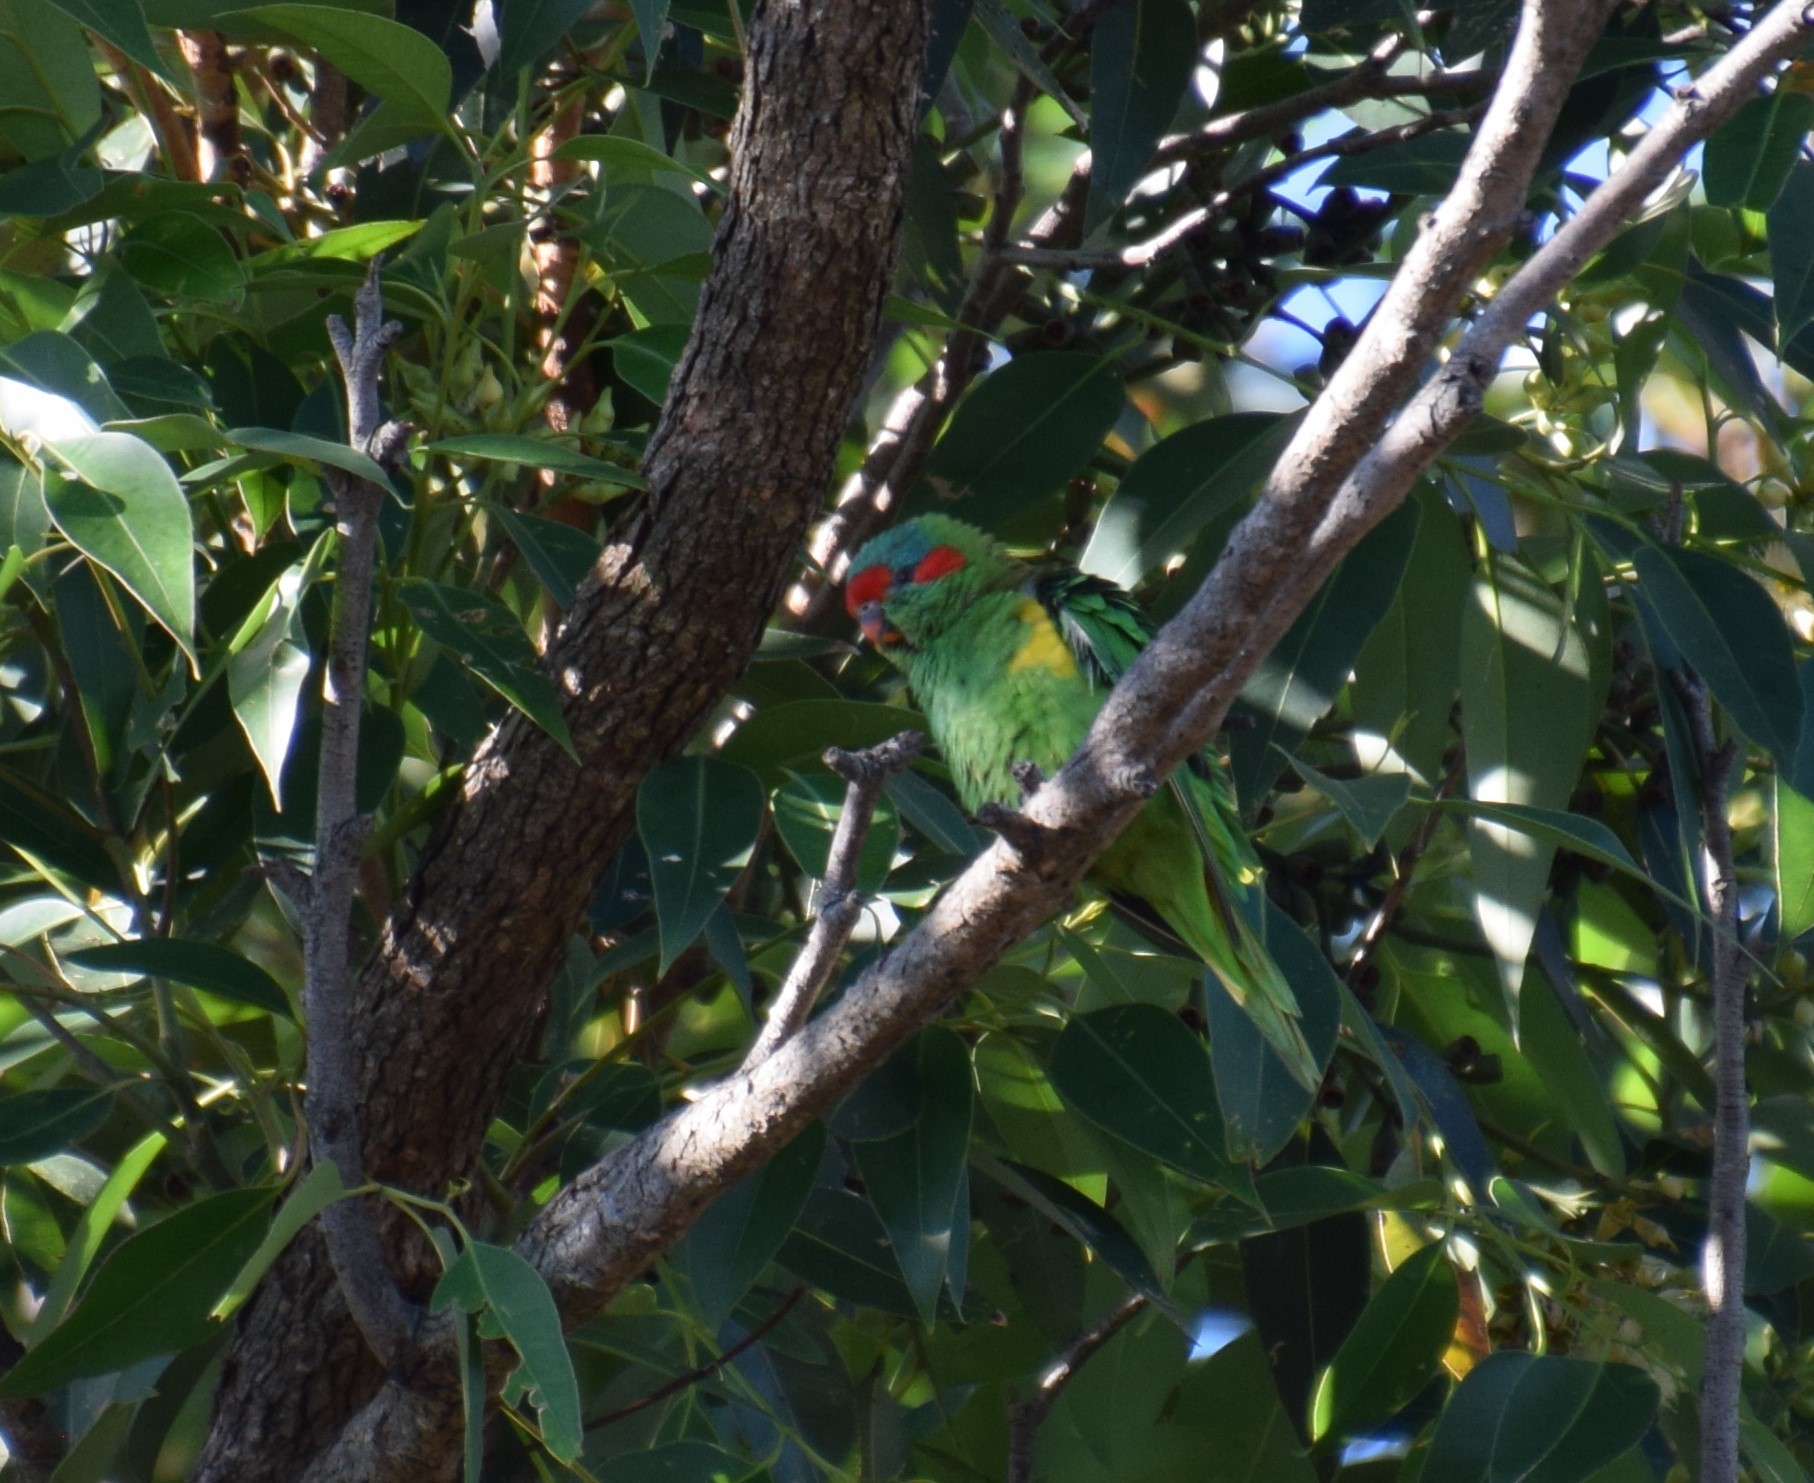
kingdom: Animalia
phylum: Chordata
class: Aves
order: Psittaciformes
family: Psittacidae
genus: Glossopsitta
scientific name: Glossopsitta concinna
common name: Musk lorikeet
